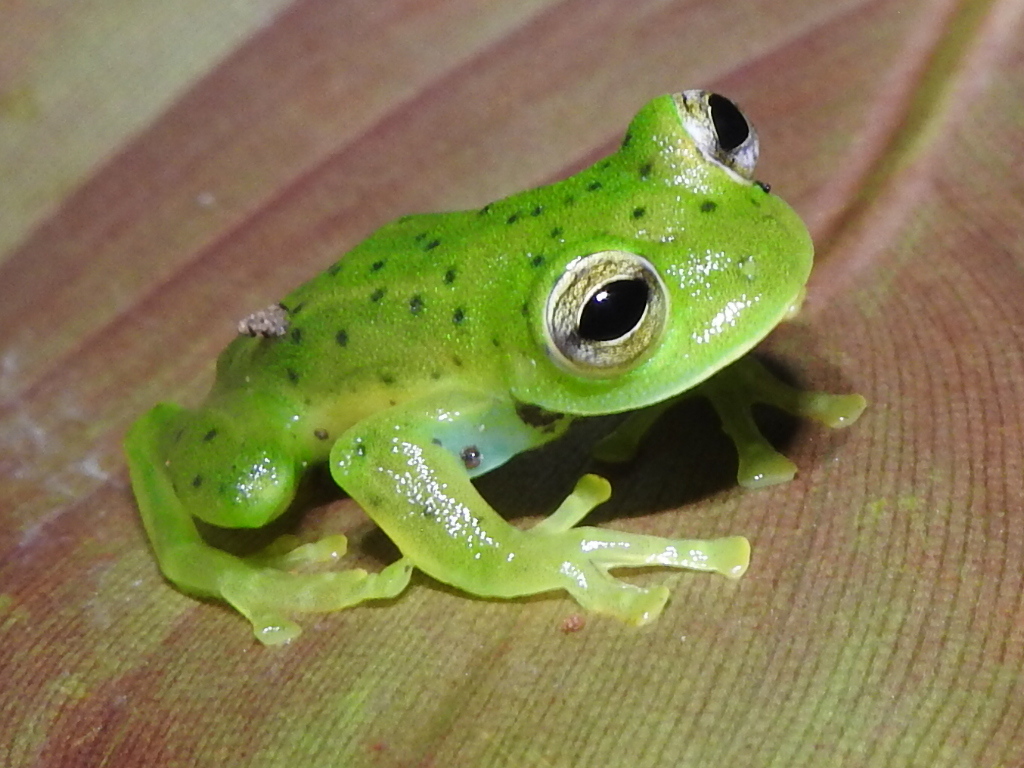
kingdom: Animalia
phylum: Chordata
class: Amphibia
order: Anura
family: Centrolenidae
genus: Espadarana
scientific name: Espadarana prosoblepon
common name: Rana de cristal variable
